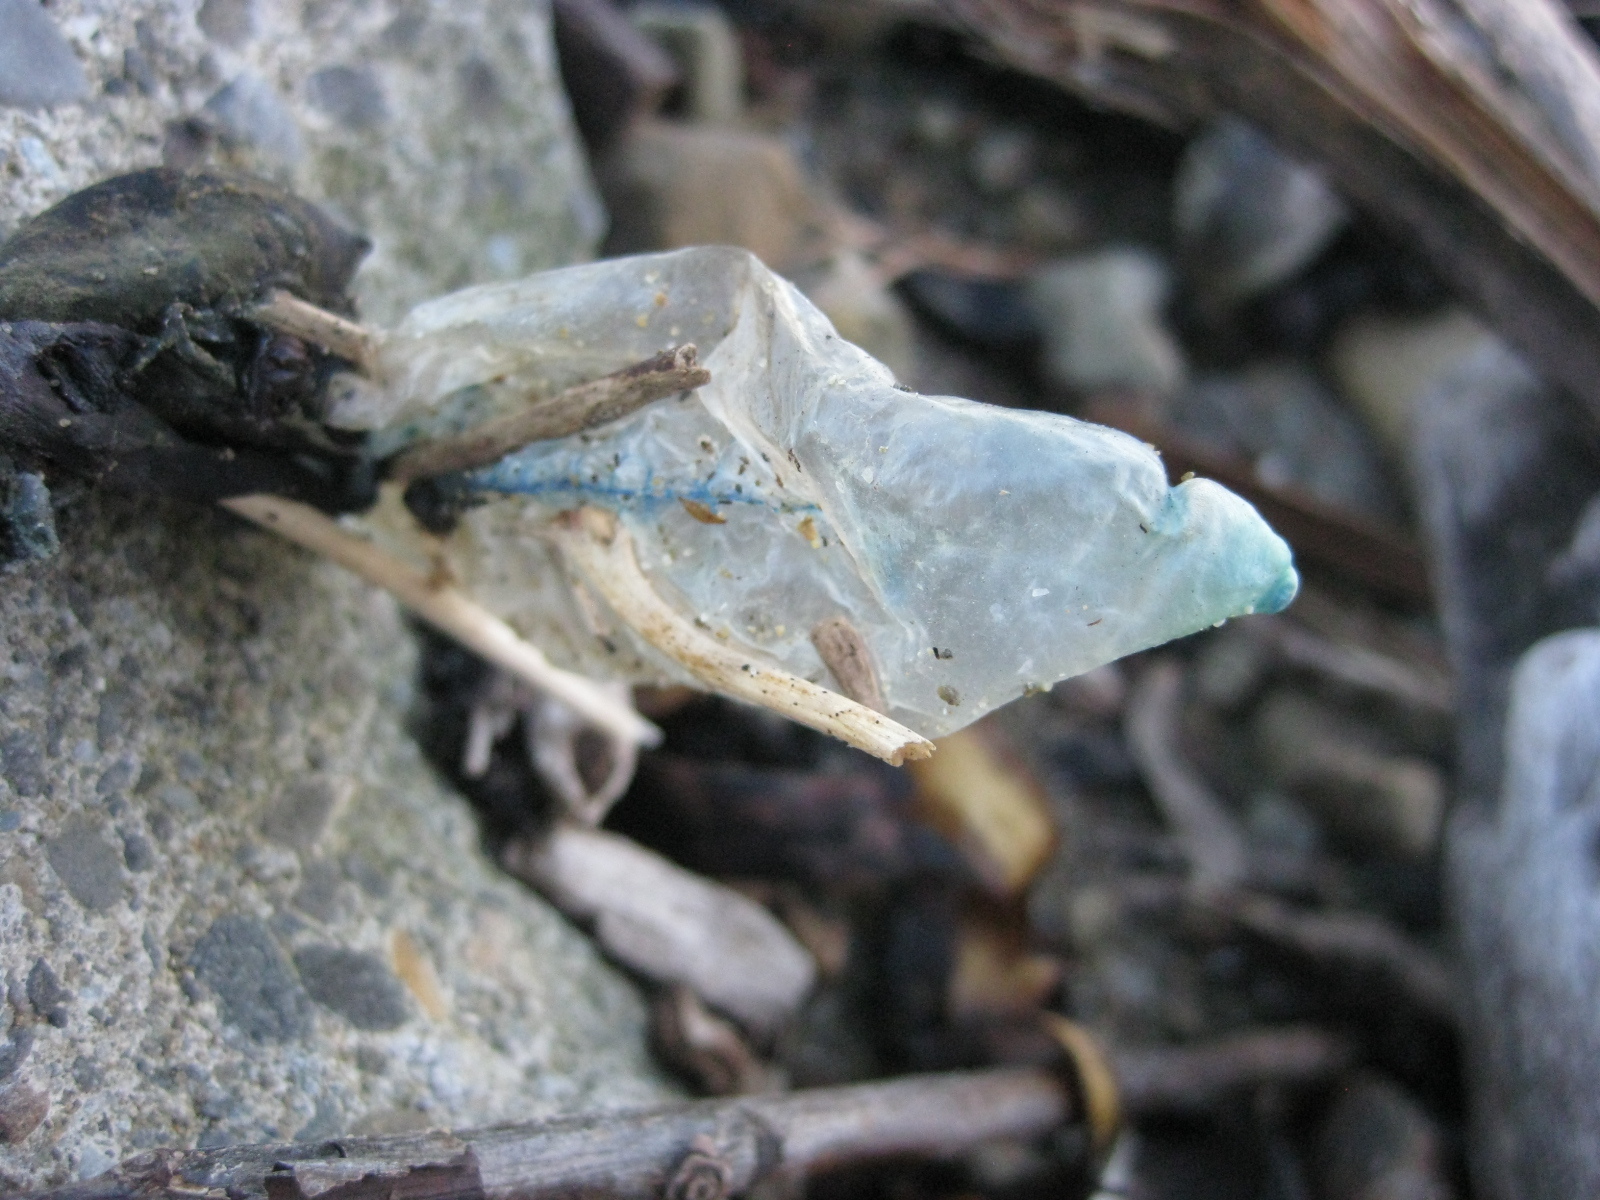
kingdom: Animalia
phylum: Cnidaria
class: Hydrozoa
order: Siphonophorae
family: Physaliidae
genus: Physalia
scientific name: Physalia physalis
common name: Portuguese man-of-war
